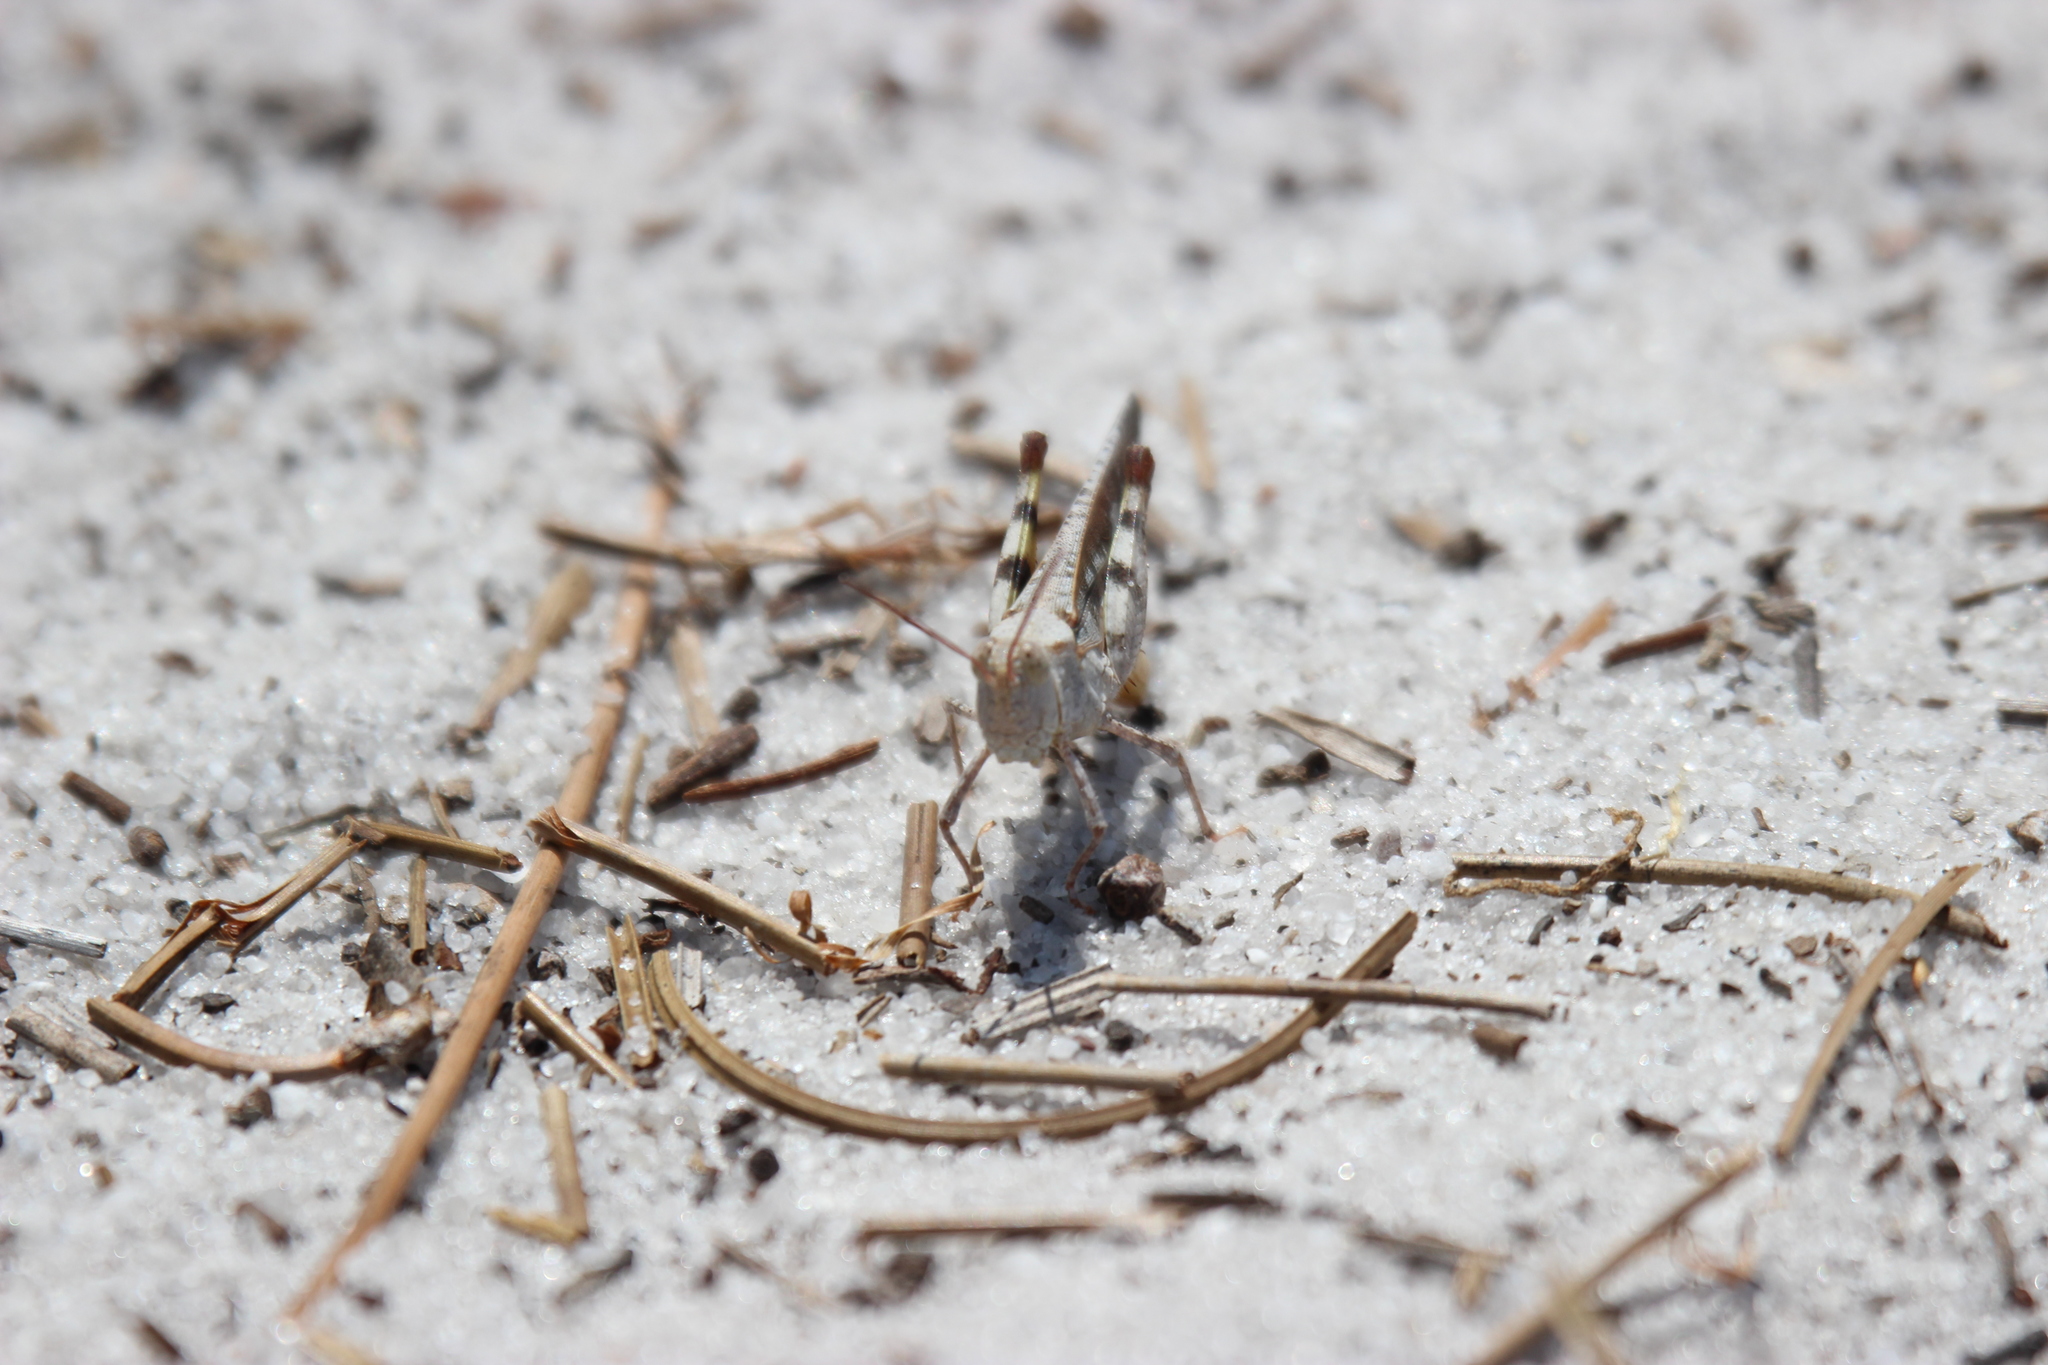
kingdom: Animalia
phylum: Arthropoda
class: Insecta
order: Orthoptera
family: Acrididae
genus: Spharagemon
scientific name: Spharagemon marmoratum
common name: Marbled grasshopper
